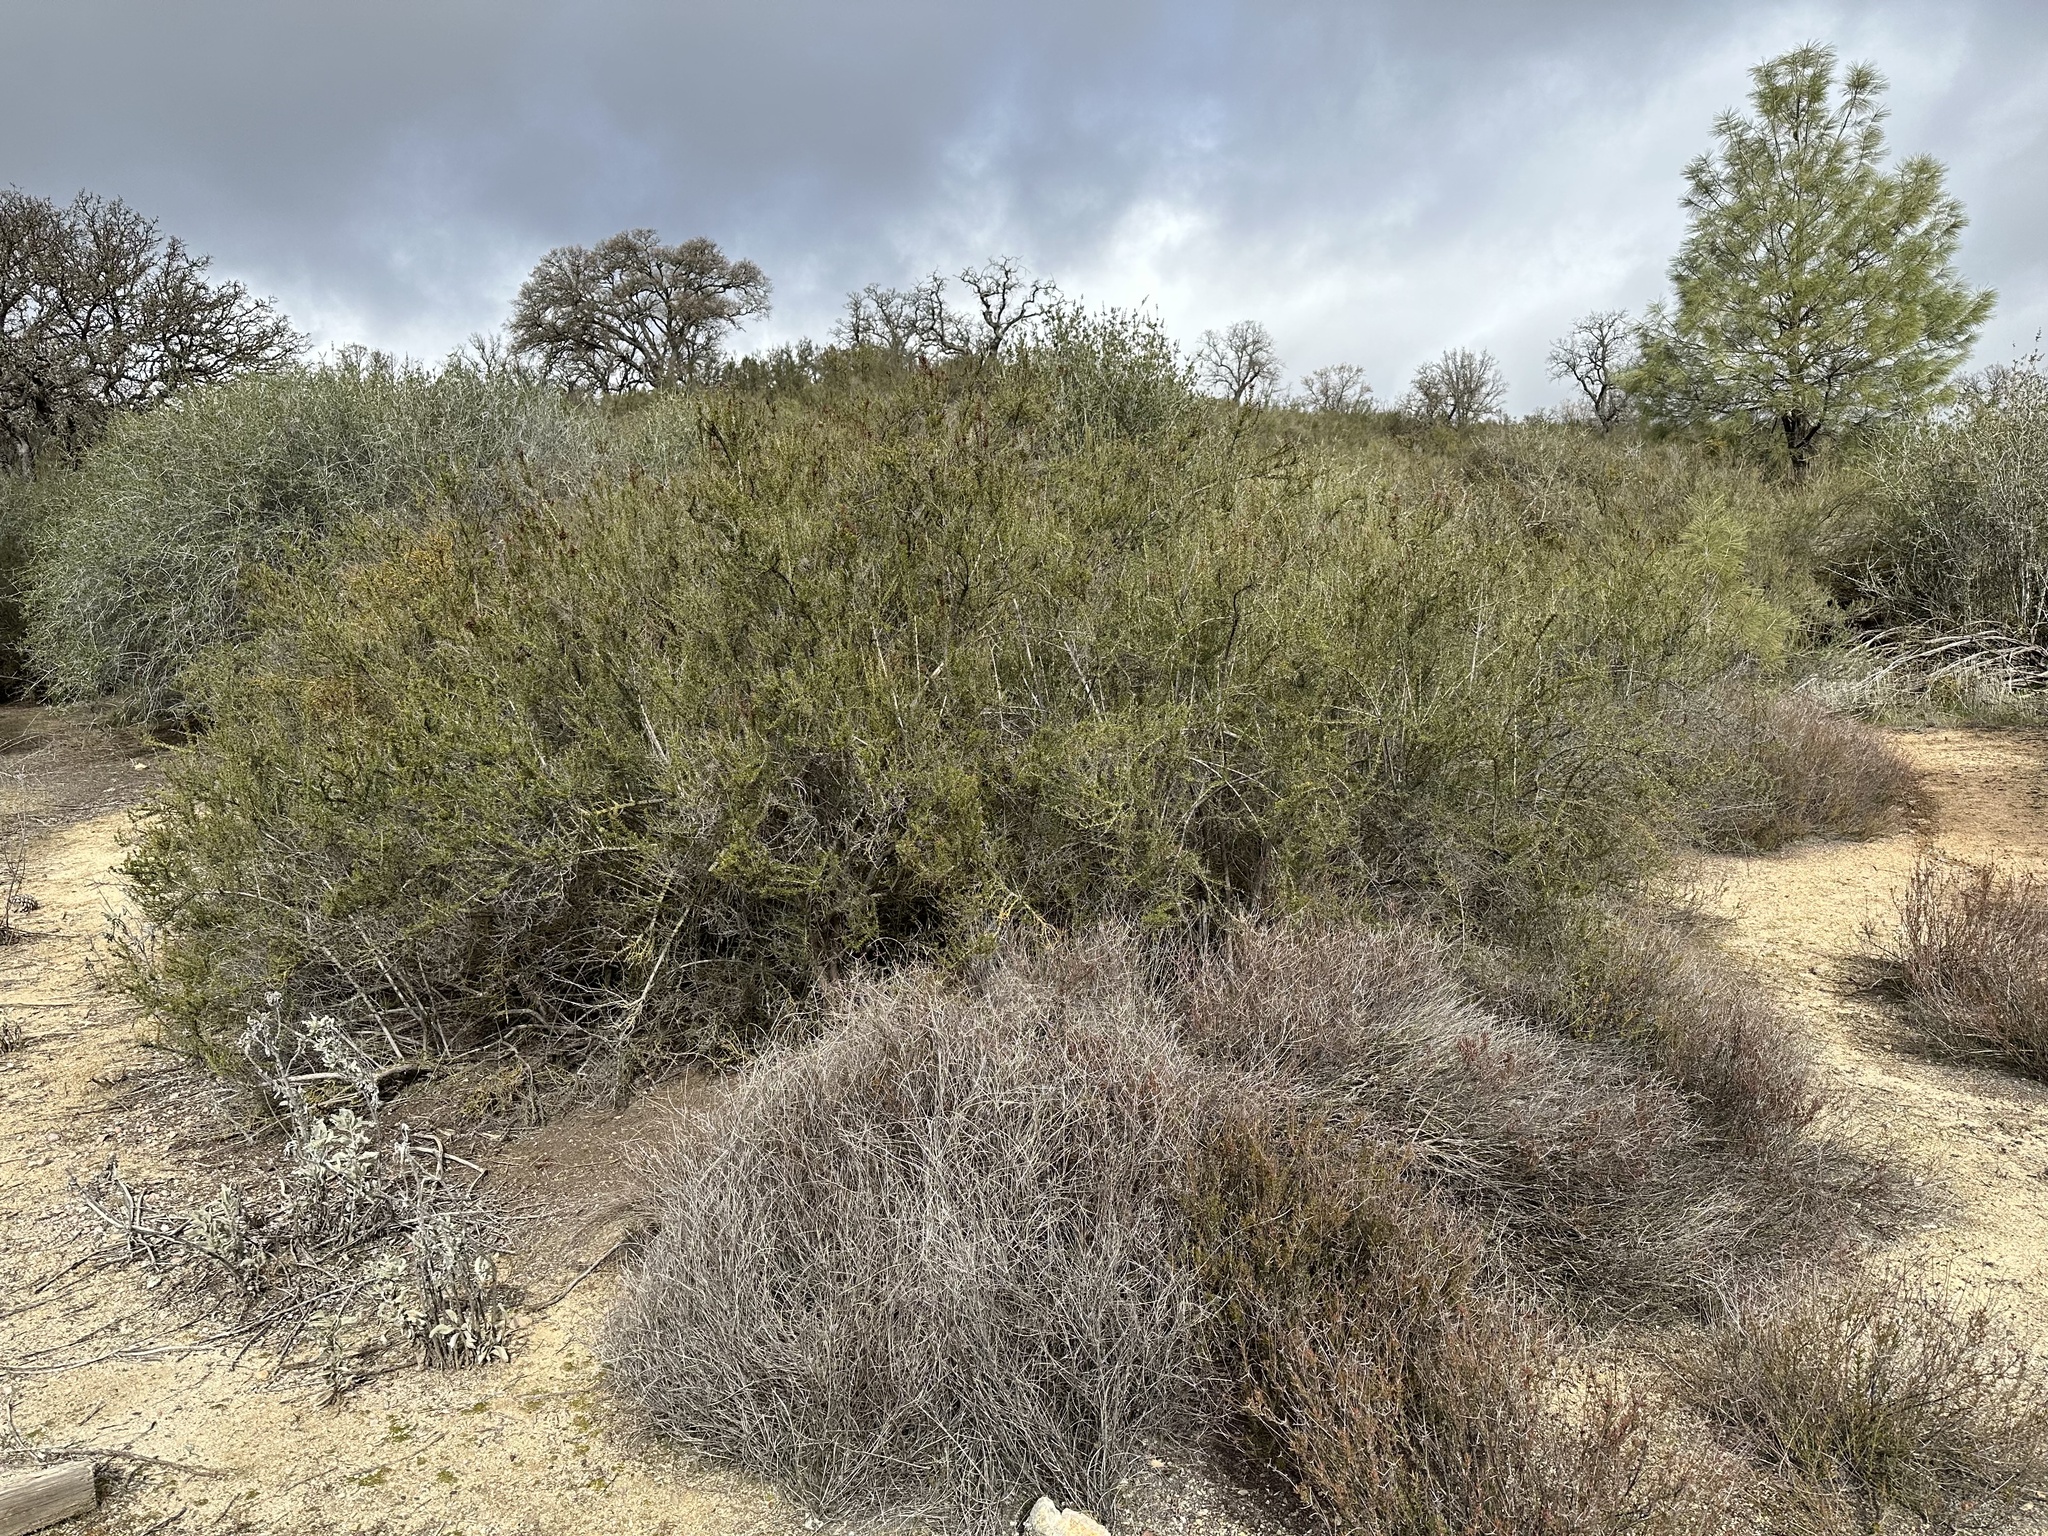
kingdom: Plantae
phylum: Tracheophyta
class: Magnoliopsida
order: Caryophyllales
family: Polygonaceae
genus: Eriogonum
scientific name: Eriogonum fasciculatum
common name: California wild buckwheat
